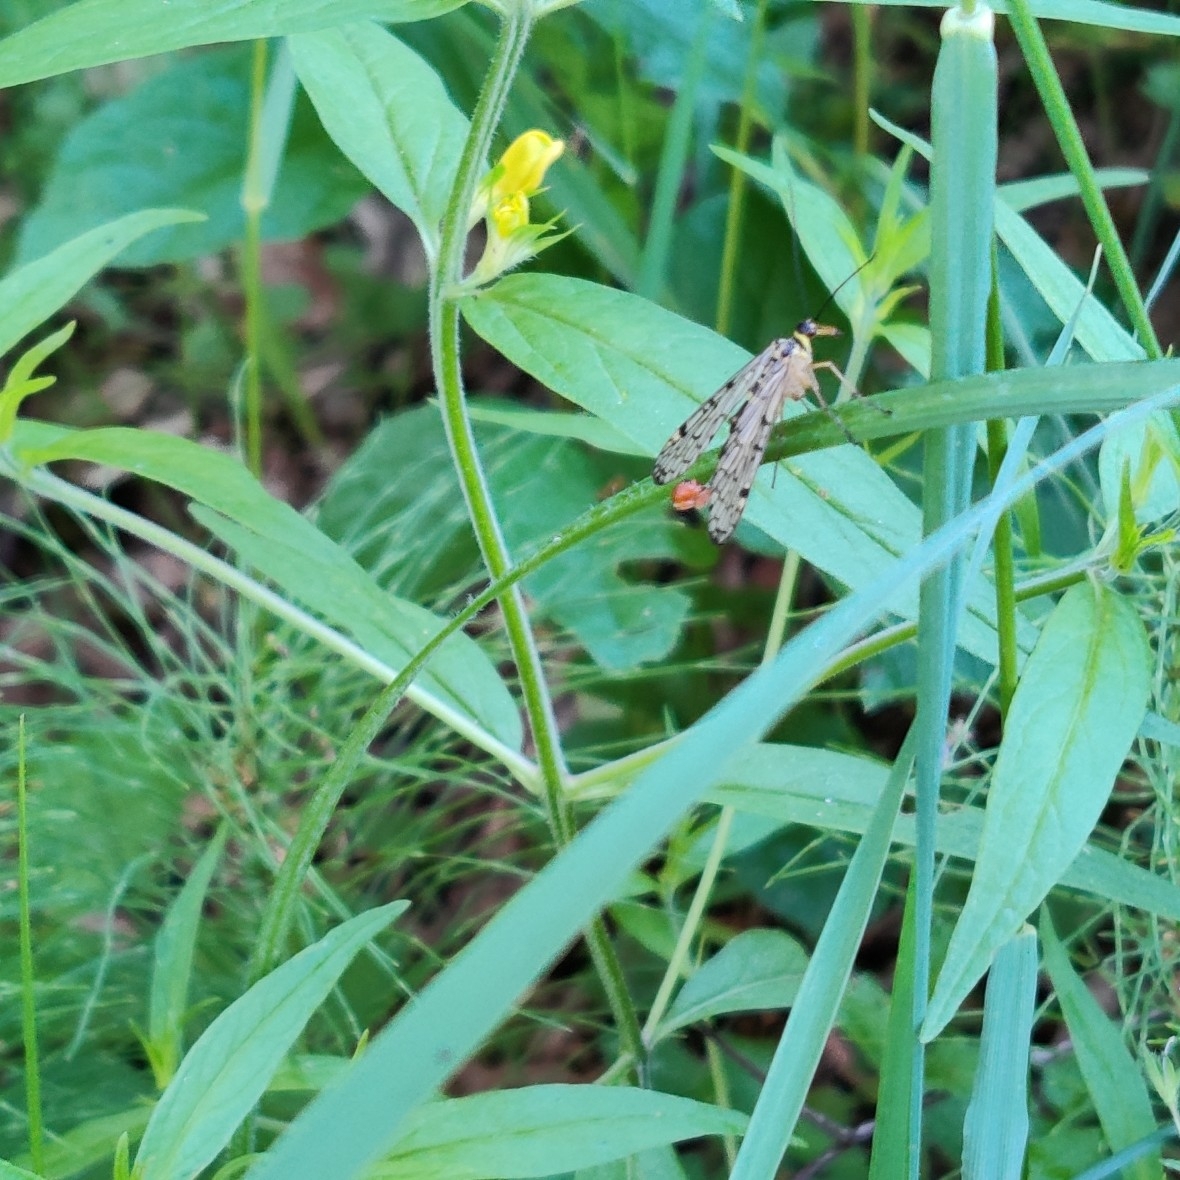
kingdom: Animalia
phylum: Arthropoda
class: Insecta
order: Mecoptera
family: Panorpidae
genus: Panorpa
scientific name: Panorpa hybrida
